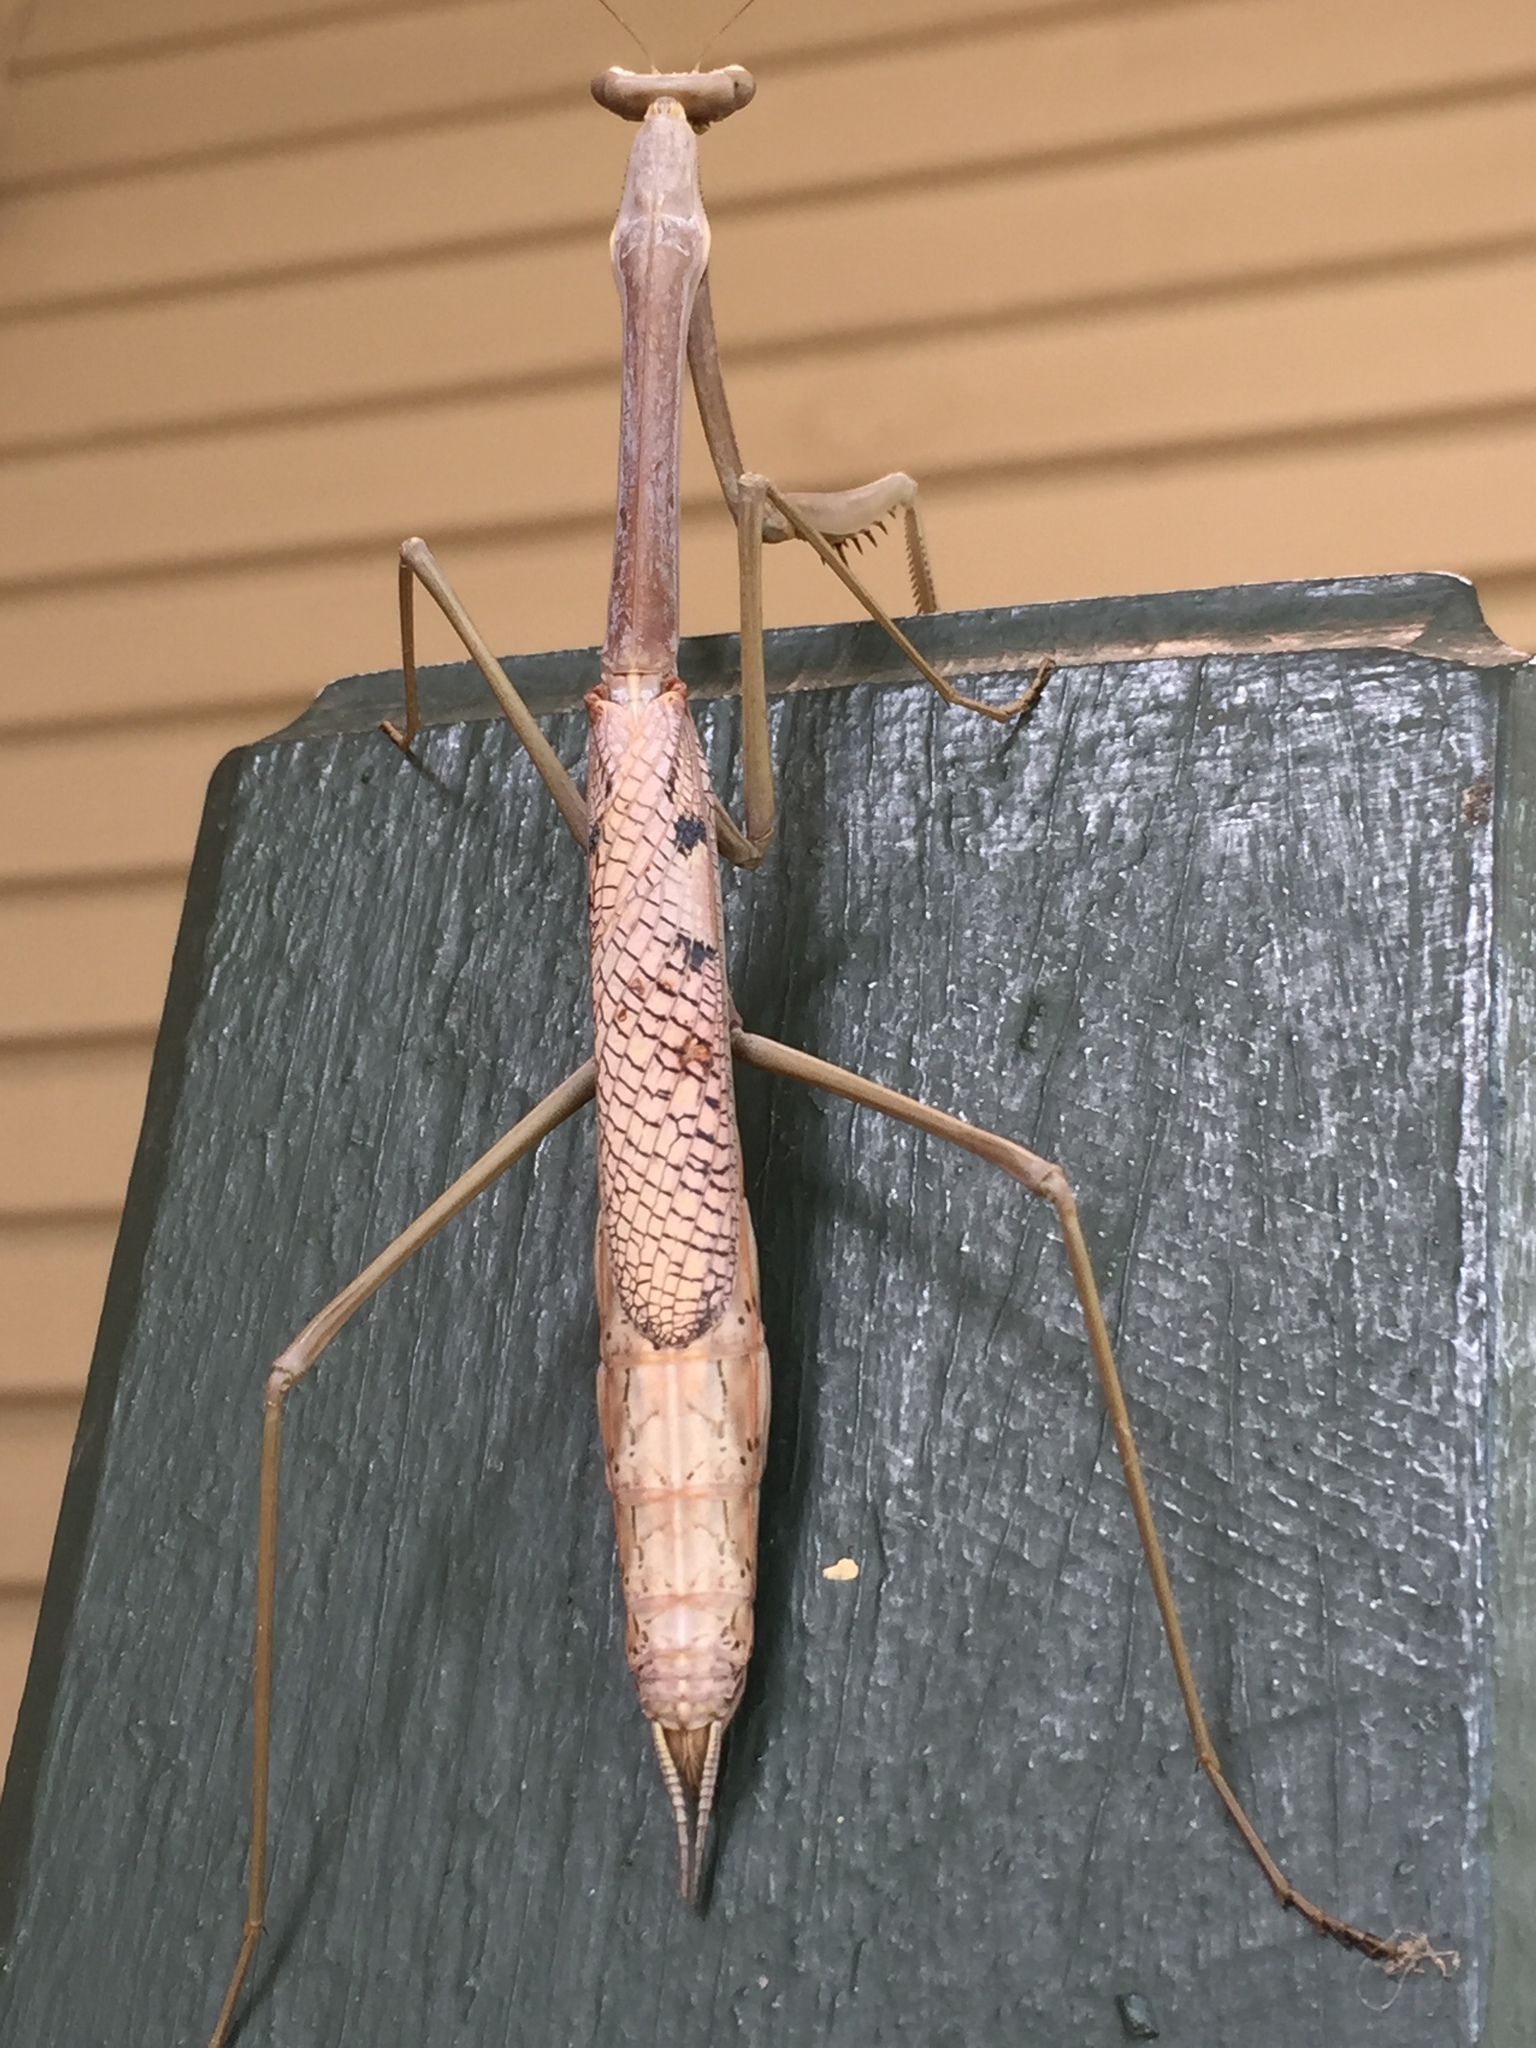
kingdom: Animalia
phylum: Arthropoda
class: Insecta
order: Mantodea
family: Mantidae
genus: Archimantis
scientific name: Archimantis latistyla
